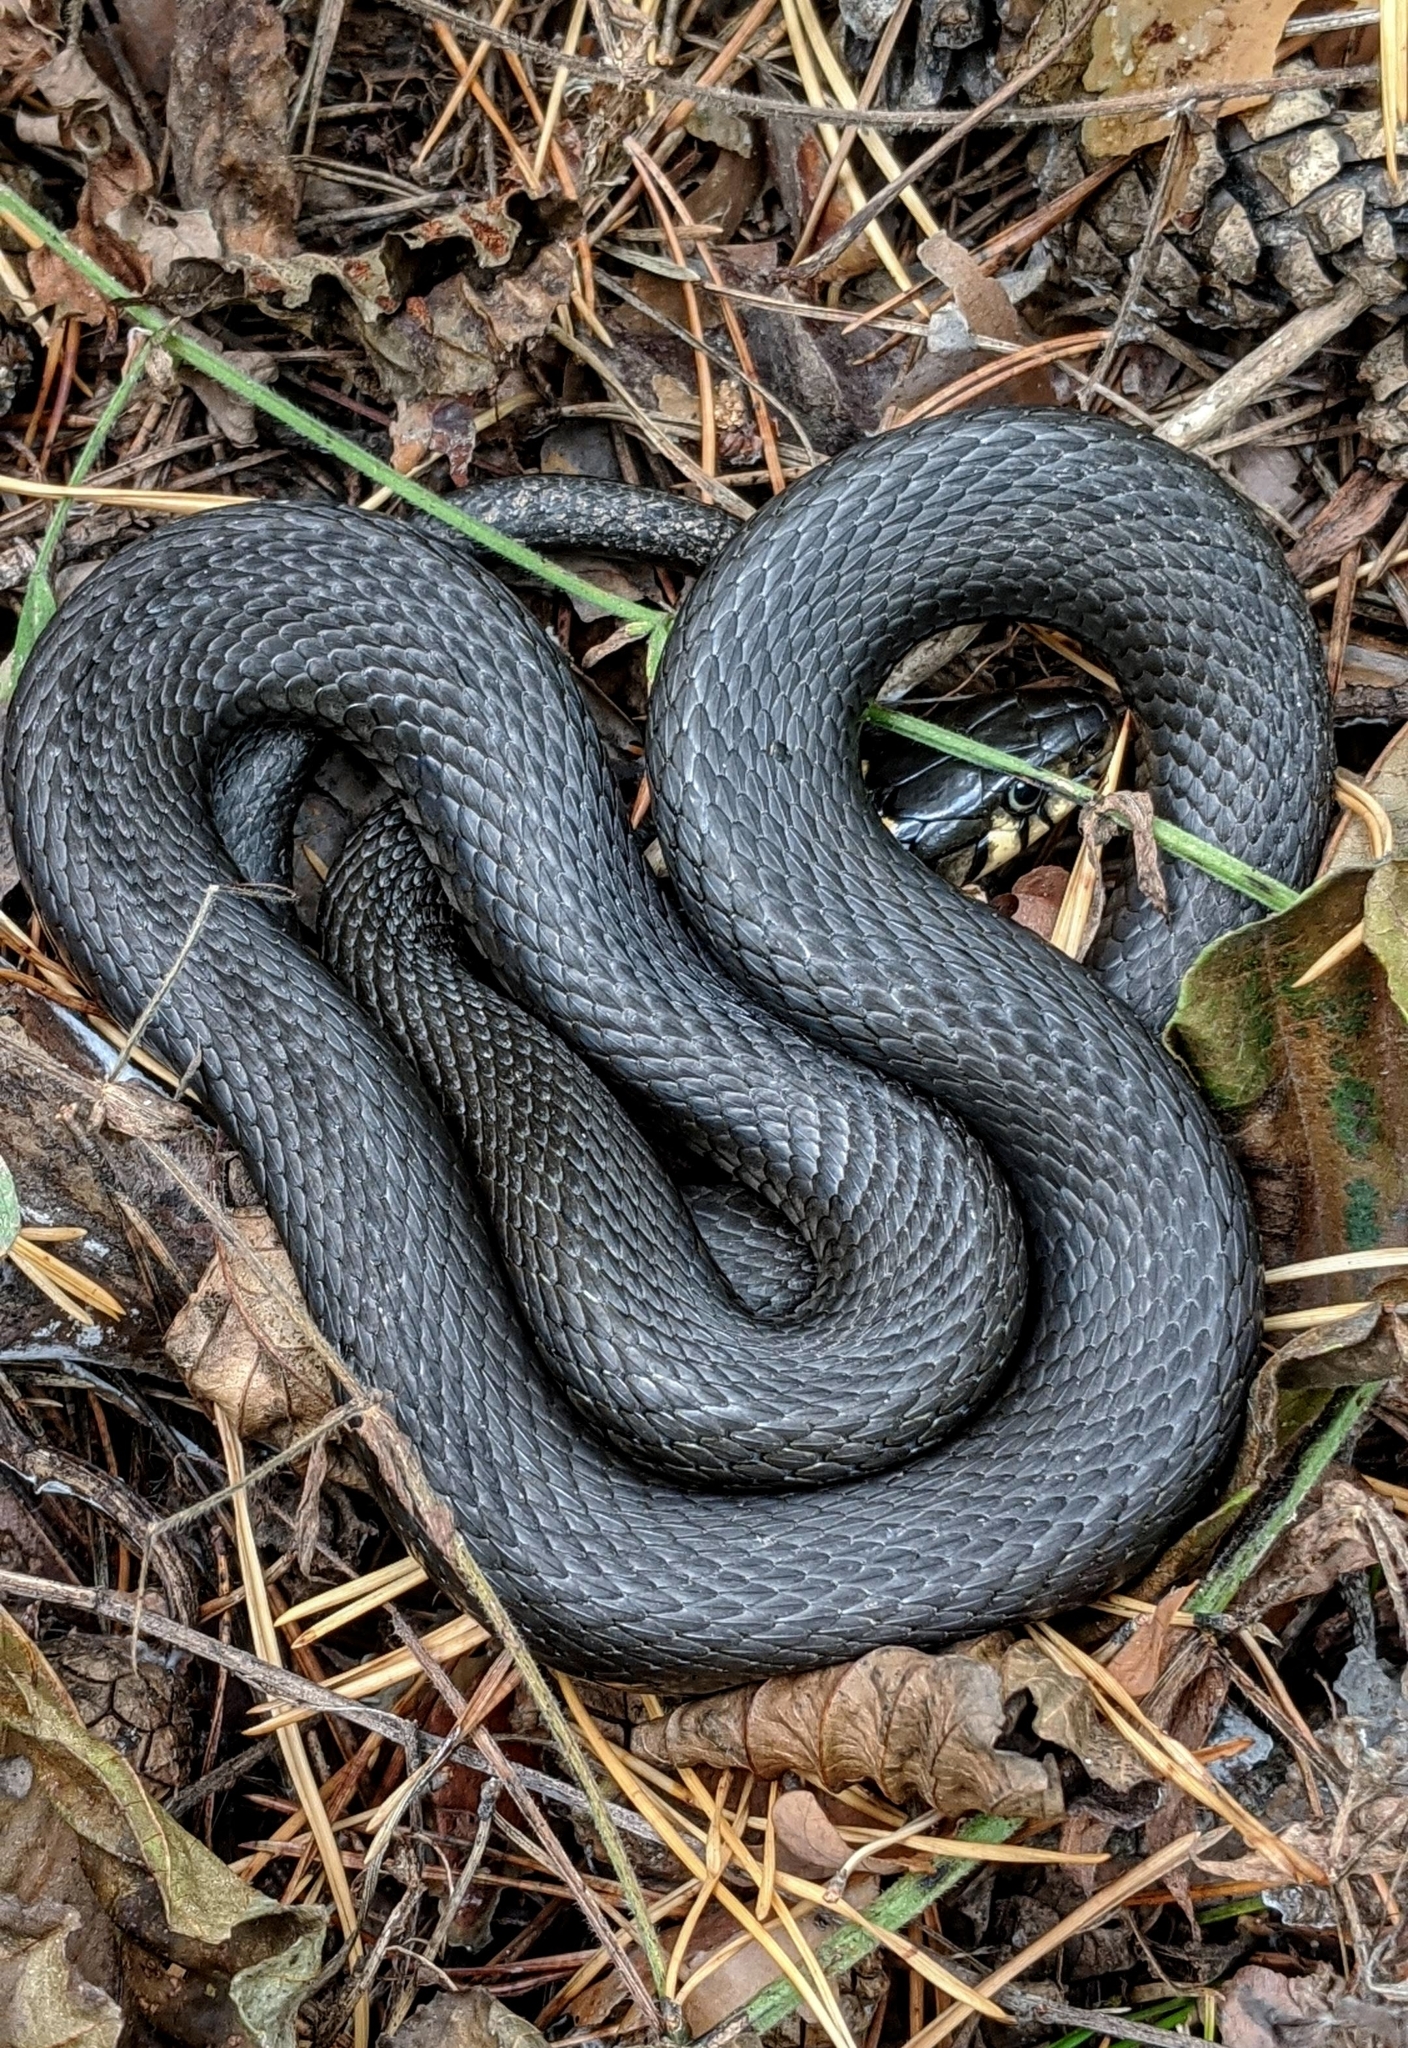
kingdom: Animalia
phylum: Chordata
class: Squamata
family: Colubridae
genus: Natrix
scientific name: Natrix natrix
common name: Grass snake
